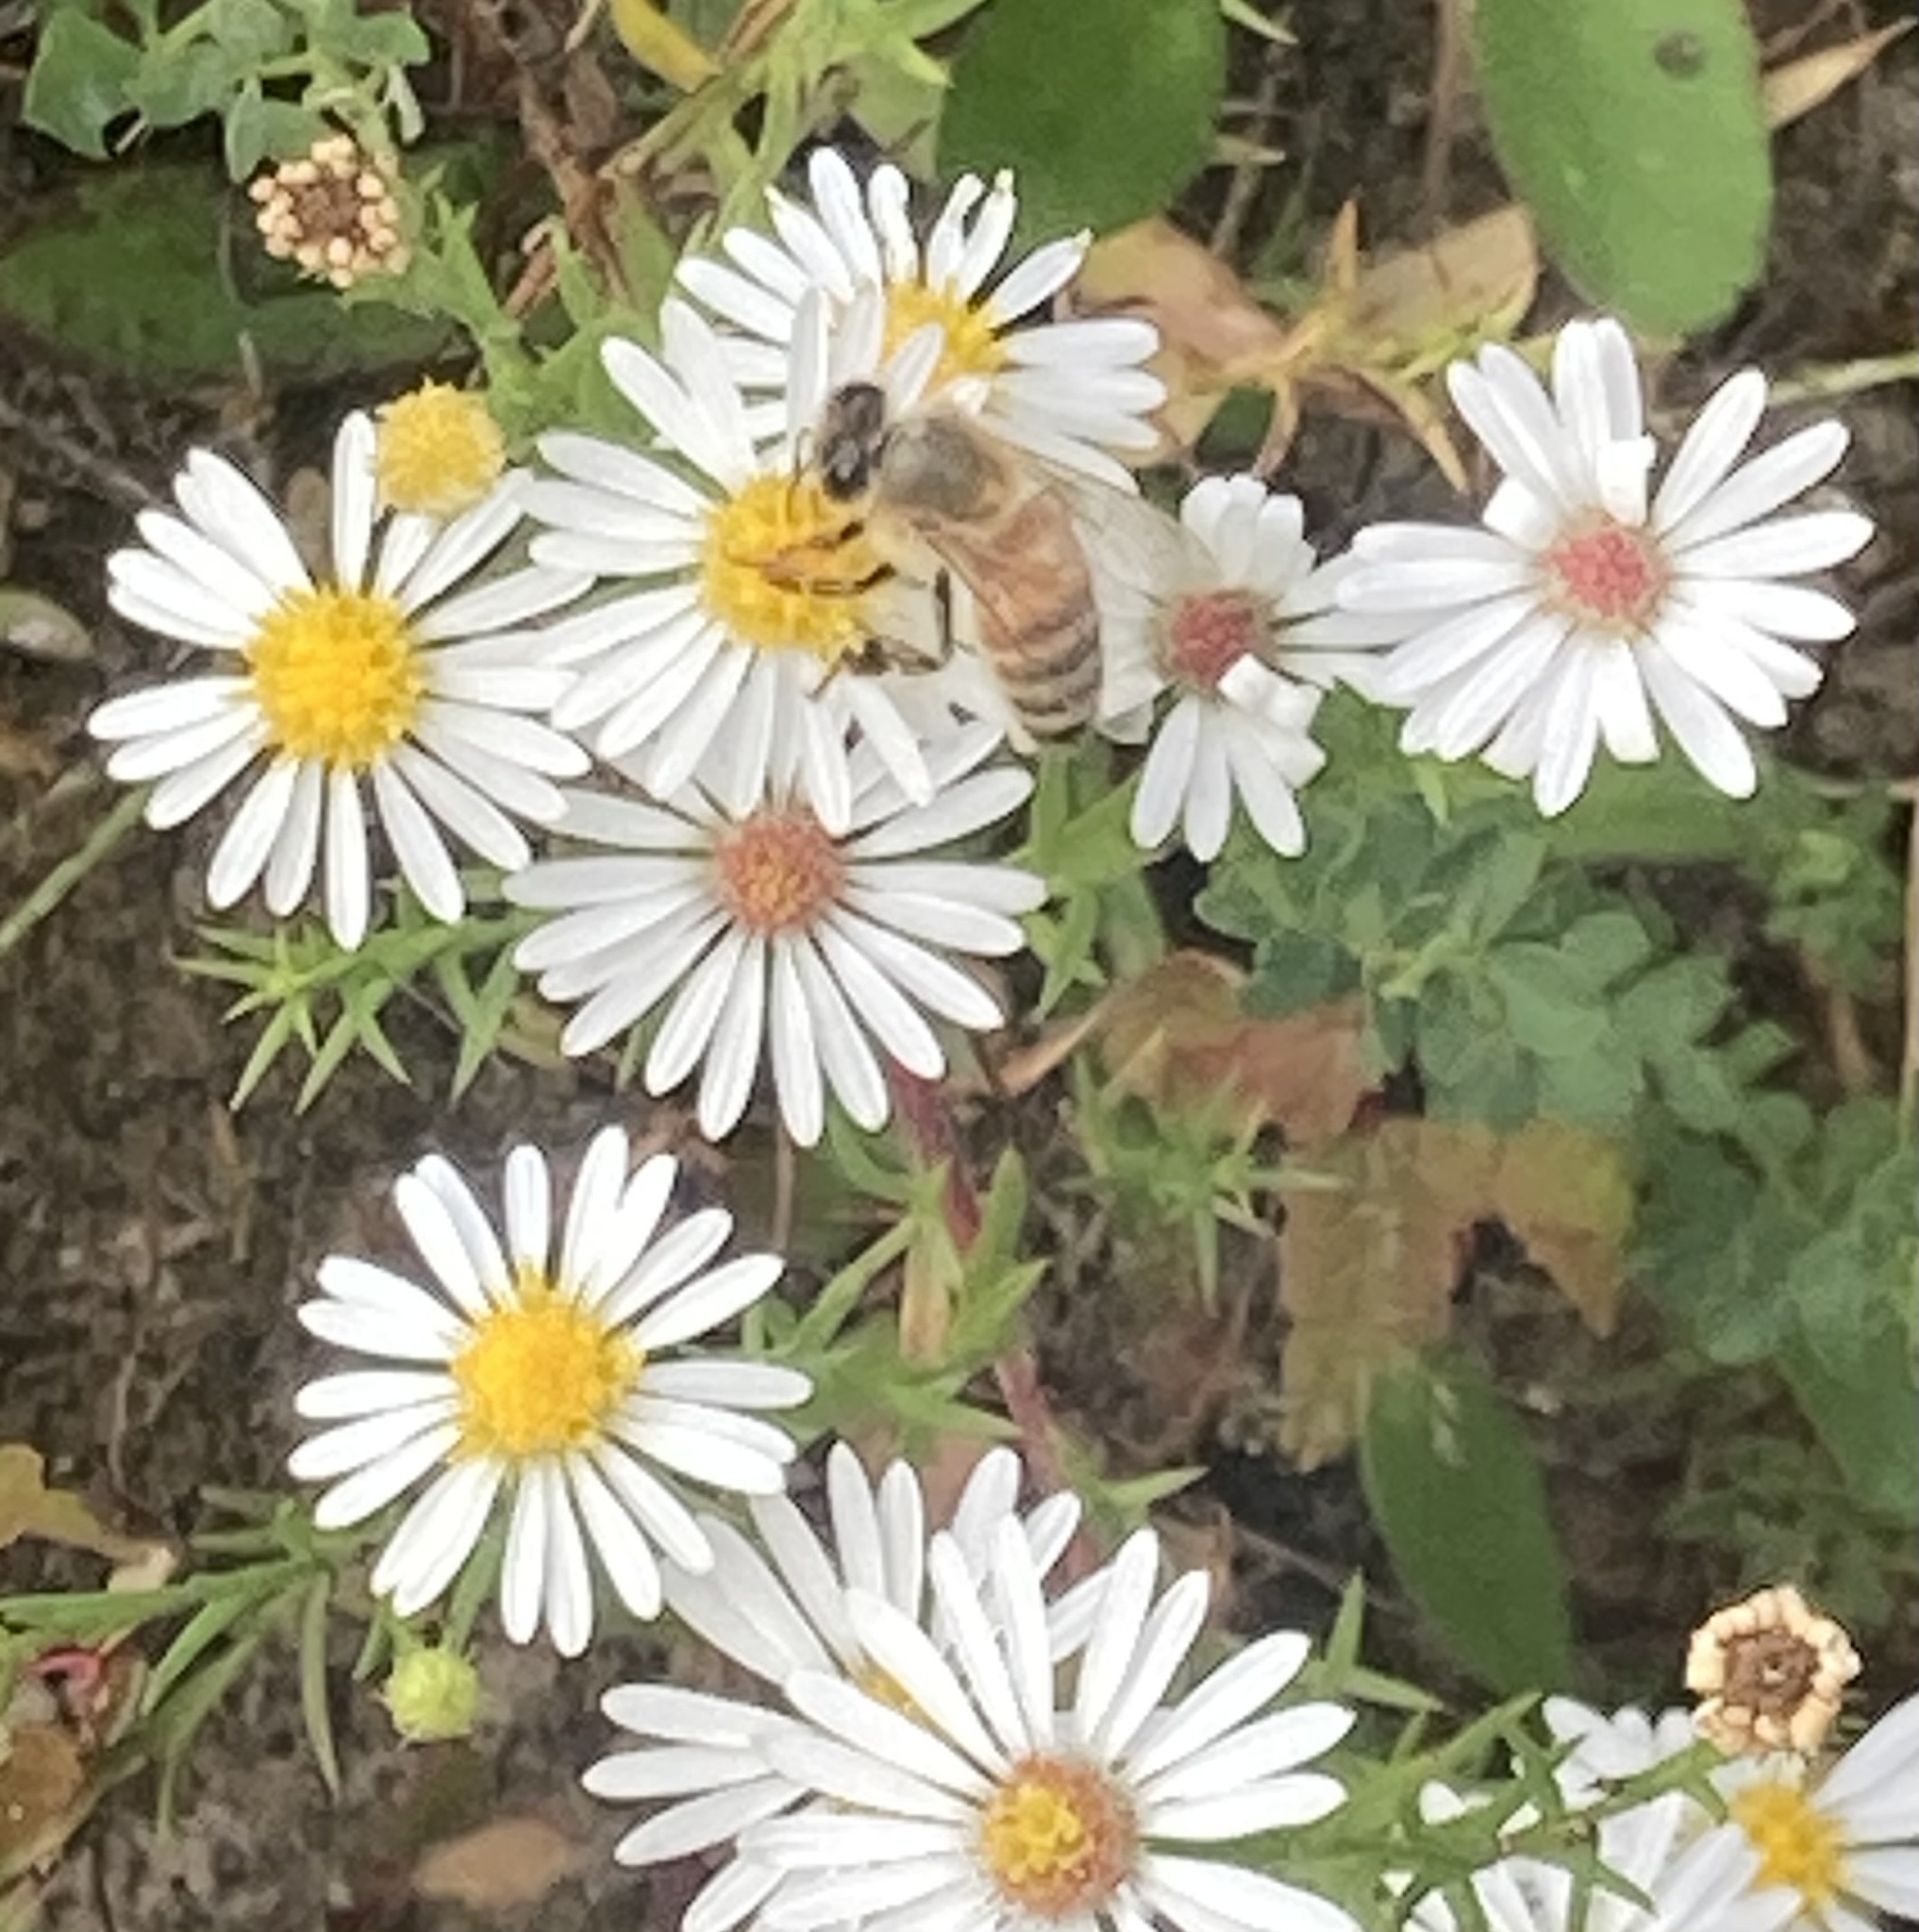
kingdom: Animalia
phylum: Arthropoda
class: Insecta
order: Hymenoptera
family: Apidae
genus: Apis
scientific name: Apis mellifera
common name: Honey bee
